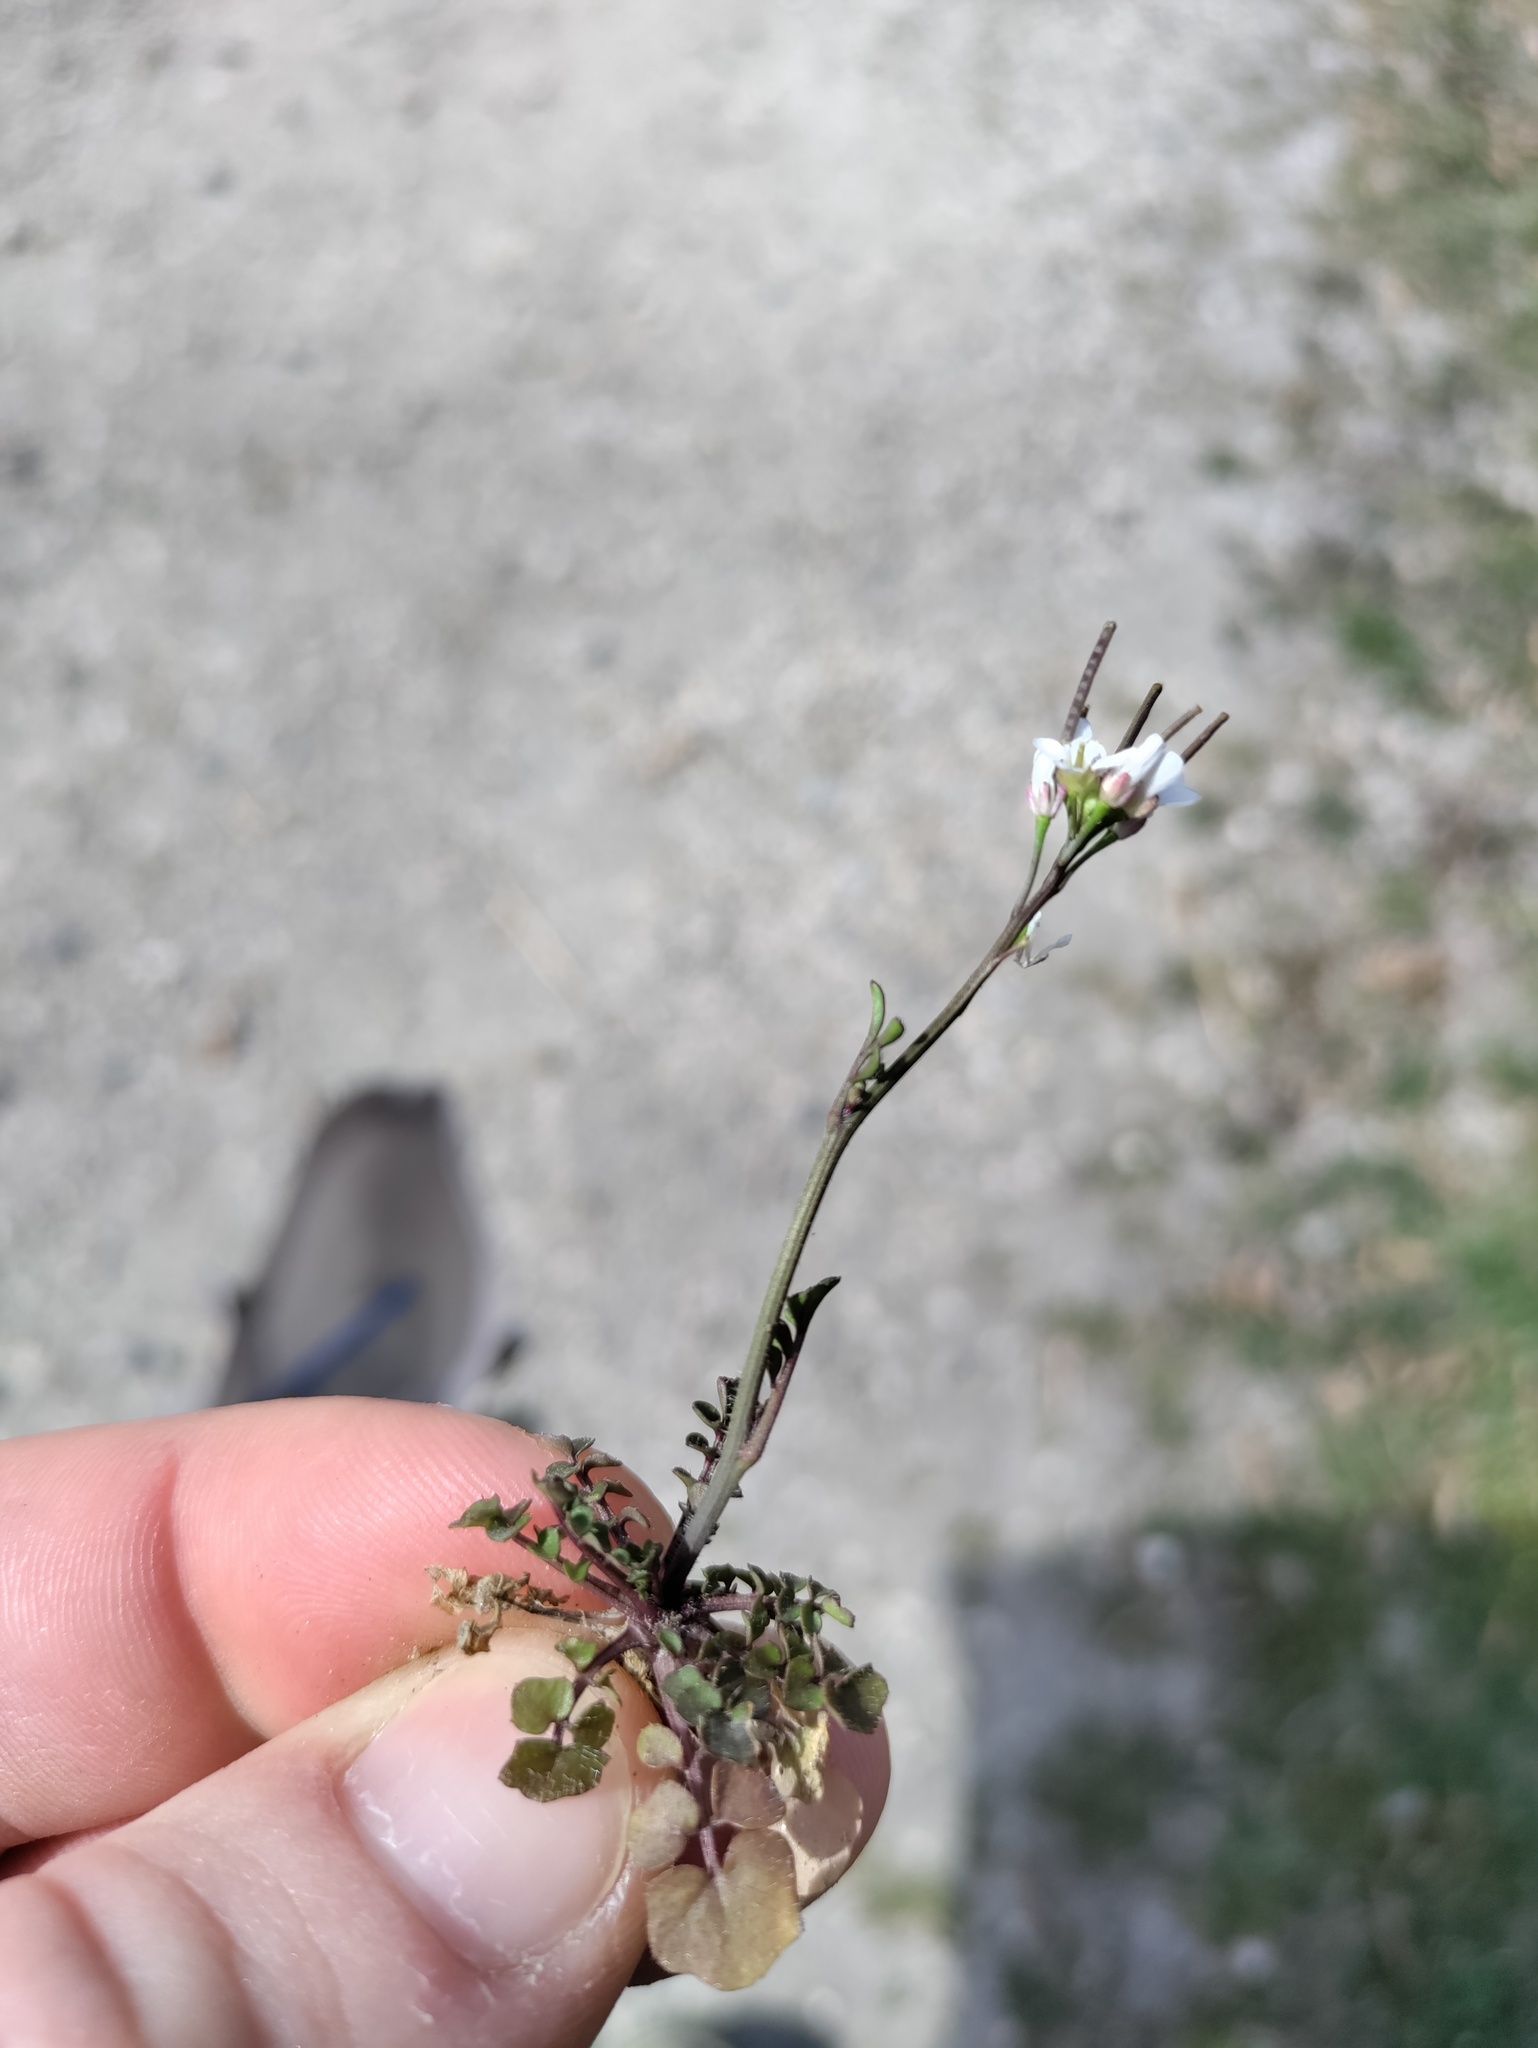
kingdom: Plantae
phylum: Tracheophyta
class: Magnoliopsida
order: Brassicales
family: Brassicaceae
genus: Cardamine
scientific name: Cardamine hirsuta
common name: Hairy bittercress
